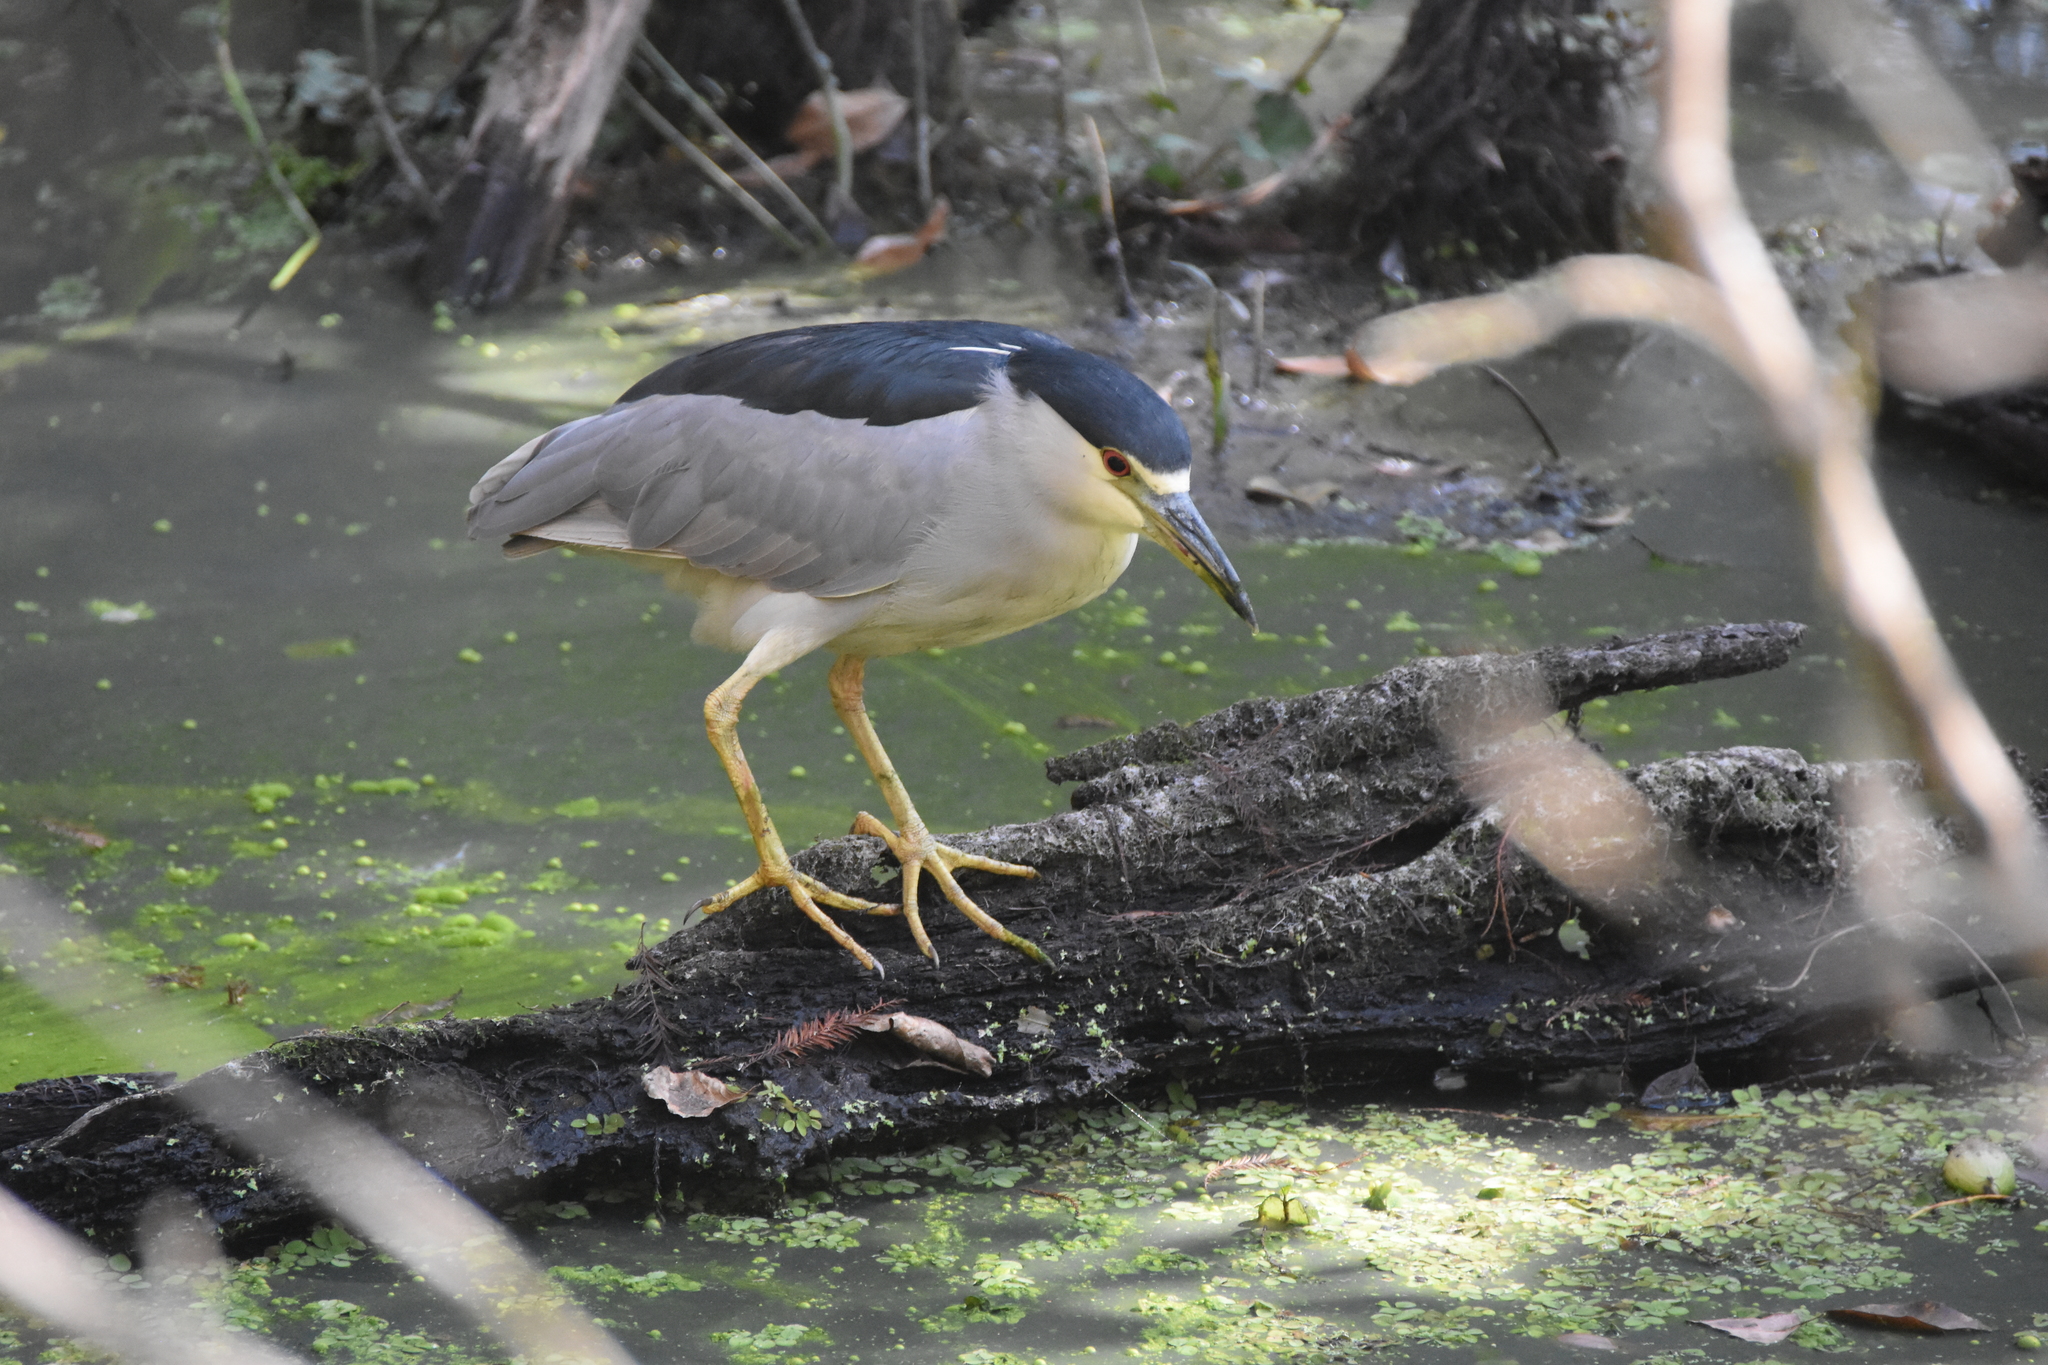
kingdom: Animalia
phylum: Chordata
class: Aves
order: Pelecaniformes
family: Ardeidae
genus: Nycticorax
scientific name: Nycticorax nycticorax
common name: Black-crowned night heron
